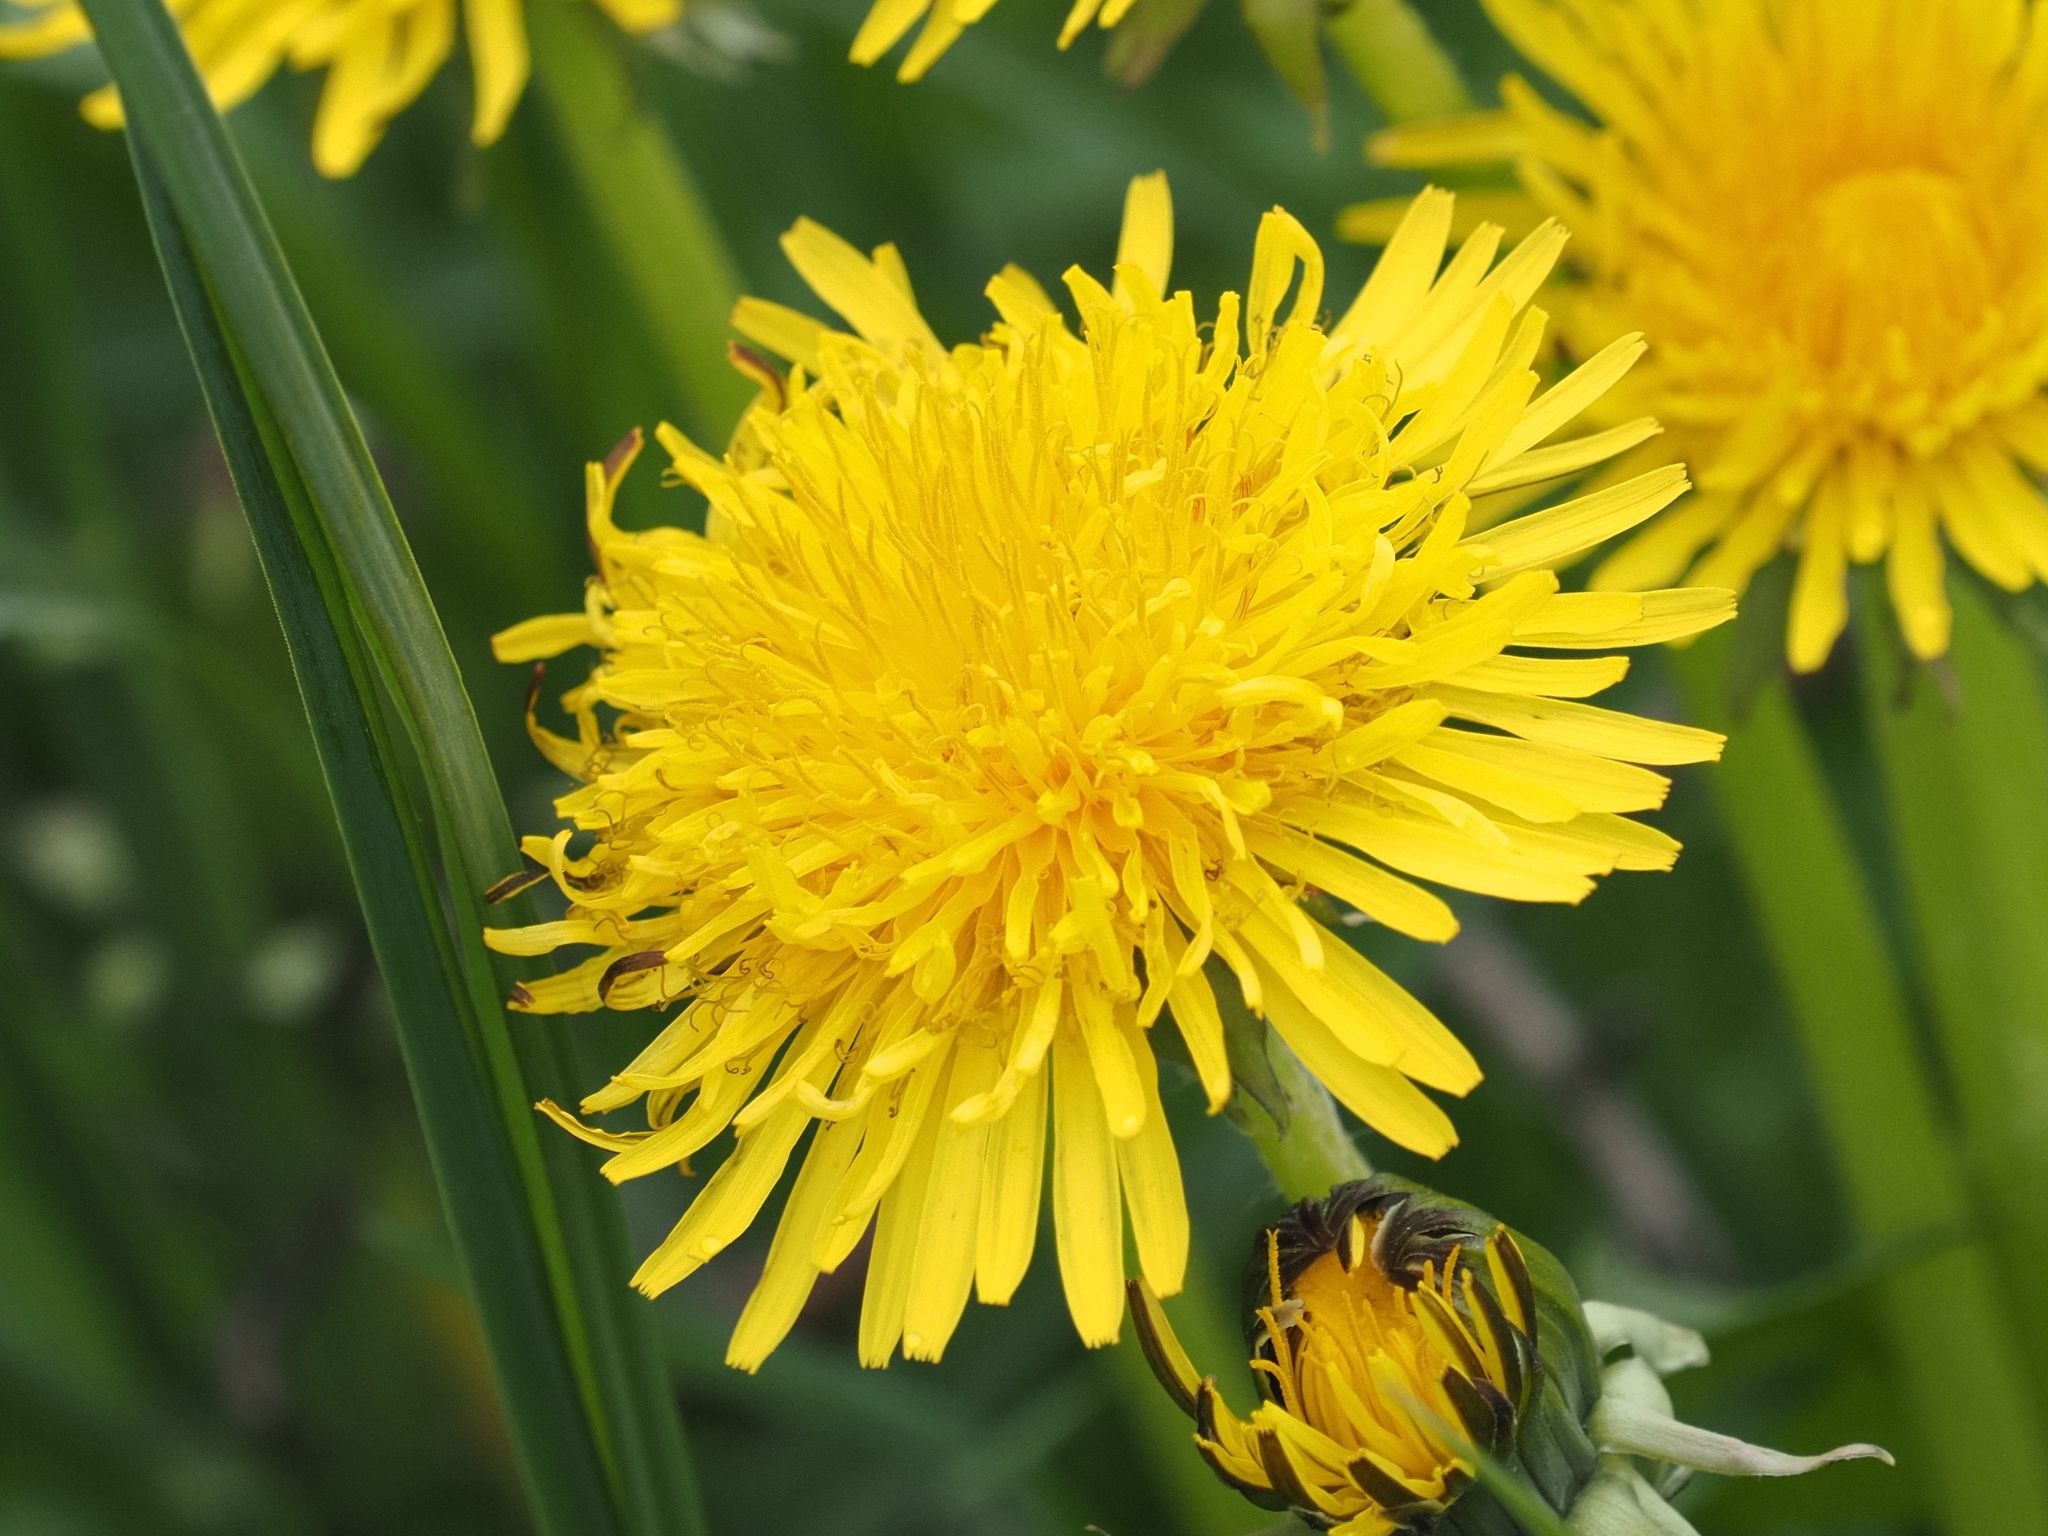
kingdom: Plantae
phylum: Tracheophyta
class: Magnoliopsida
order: Asterales
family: Asteraceae
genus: Taraxacum
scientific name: Taraxacum officinale
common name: Common dandelion
